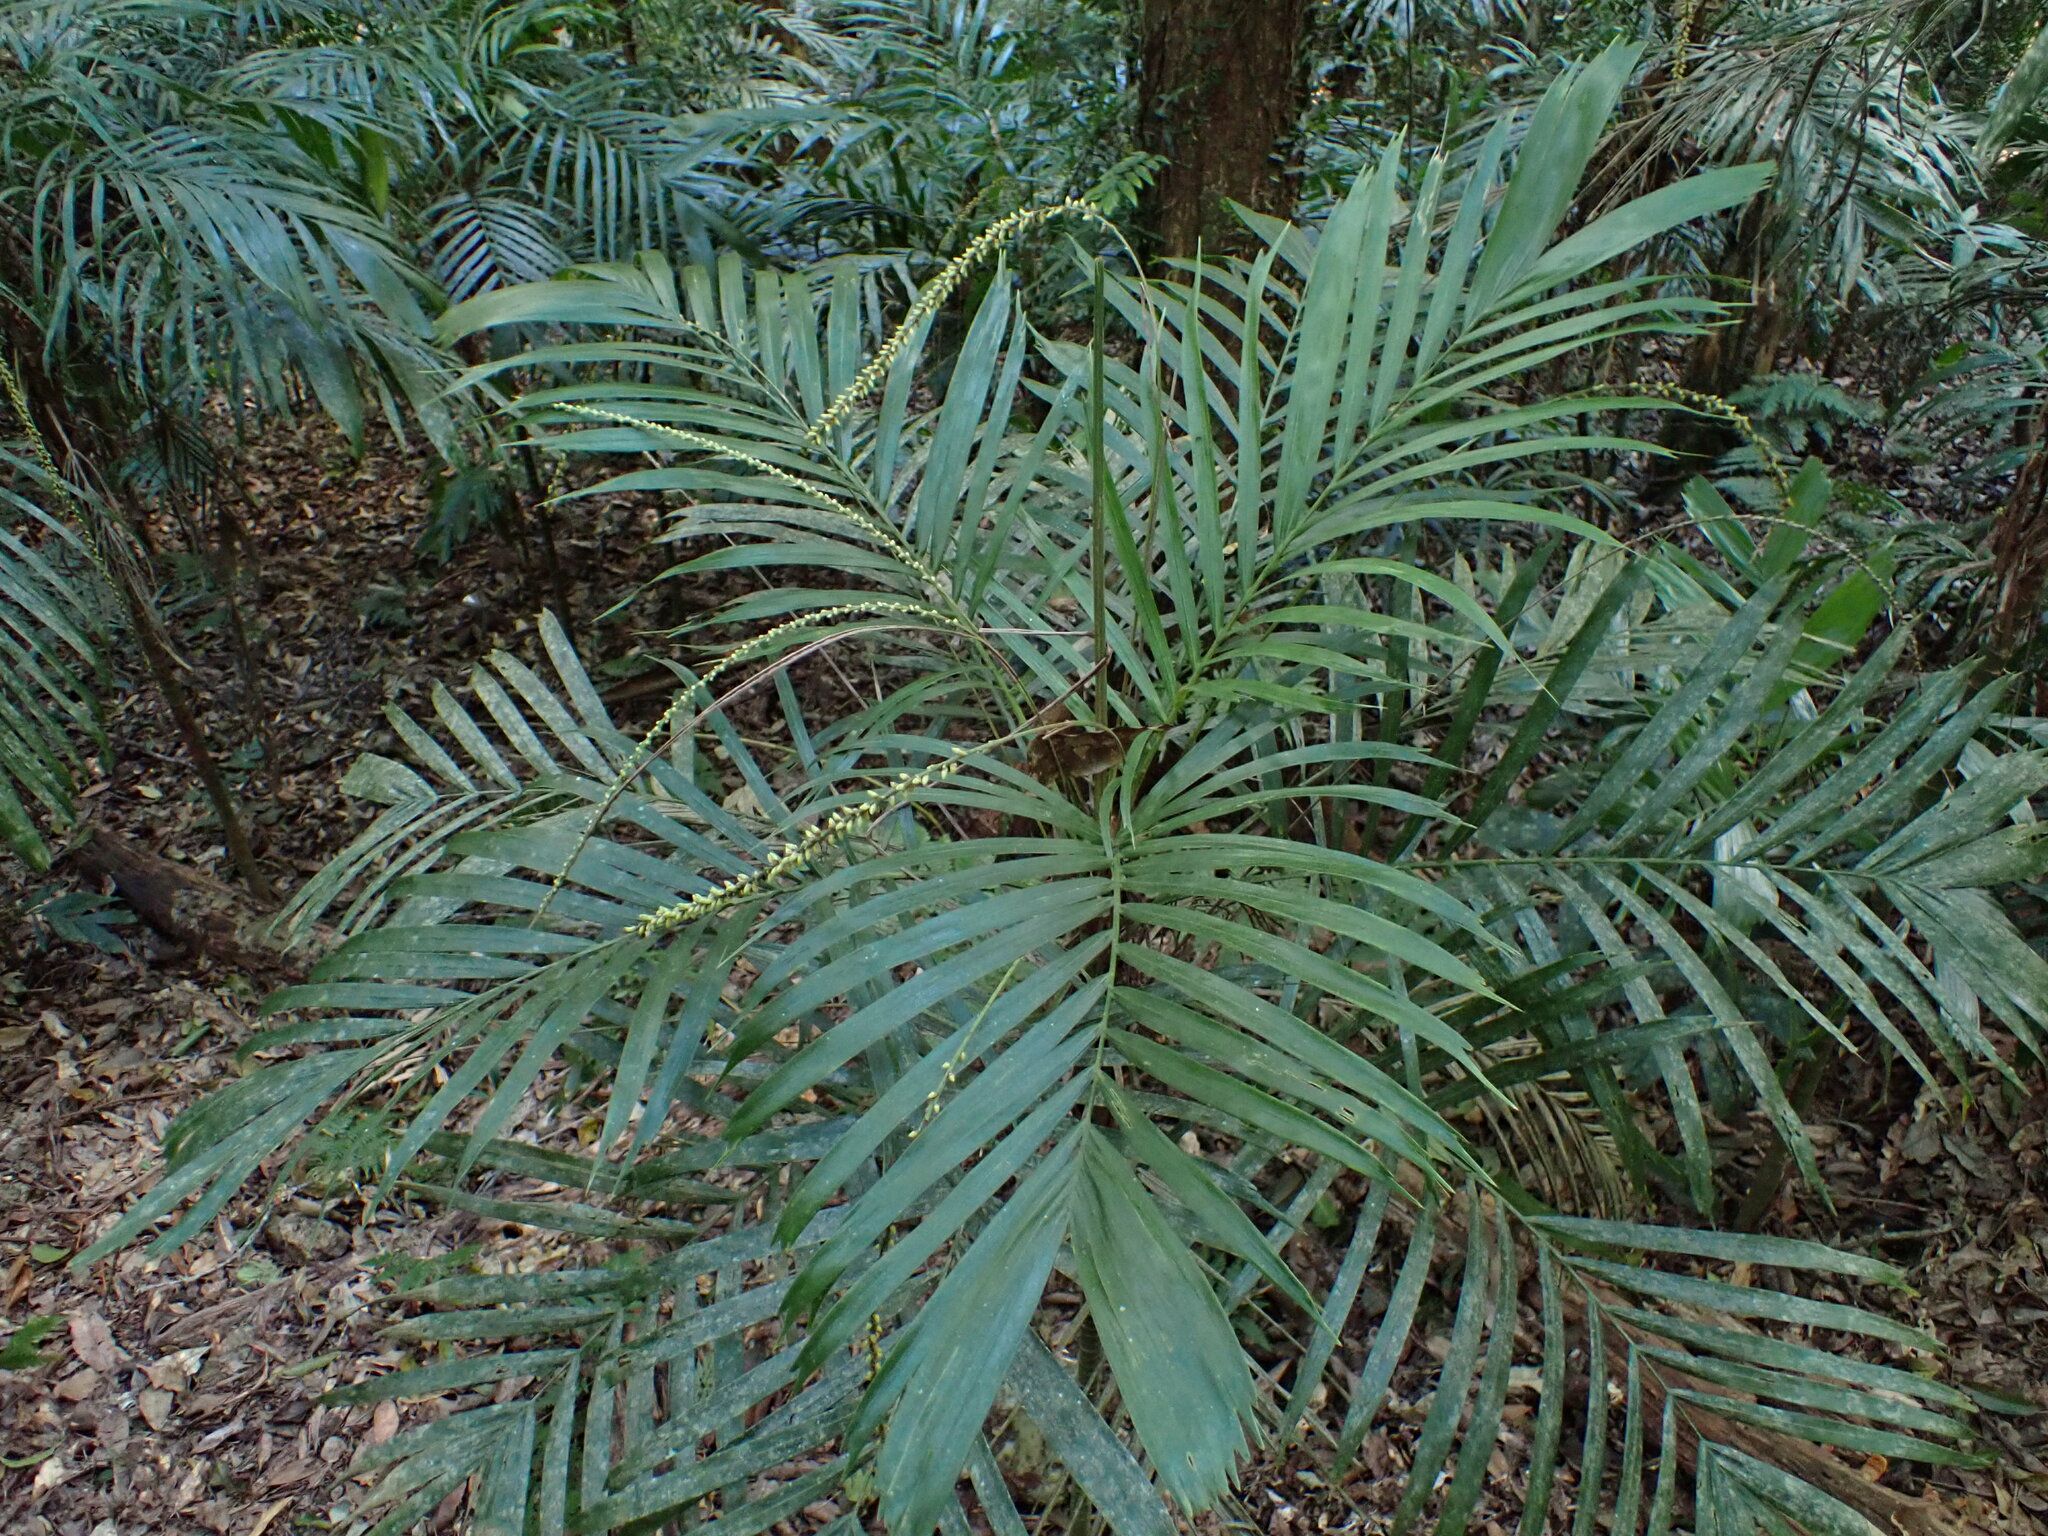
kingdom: Plantae
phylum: Tracheophyta
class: Liliopsida
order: Arecales
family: Arecaceae
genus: Linospadix
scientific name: Linospadix monostachyus
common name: Walking-stick palm
